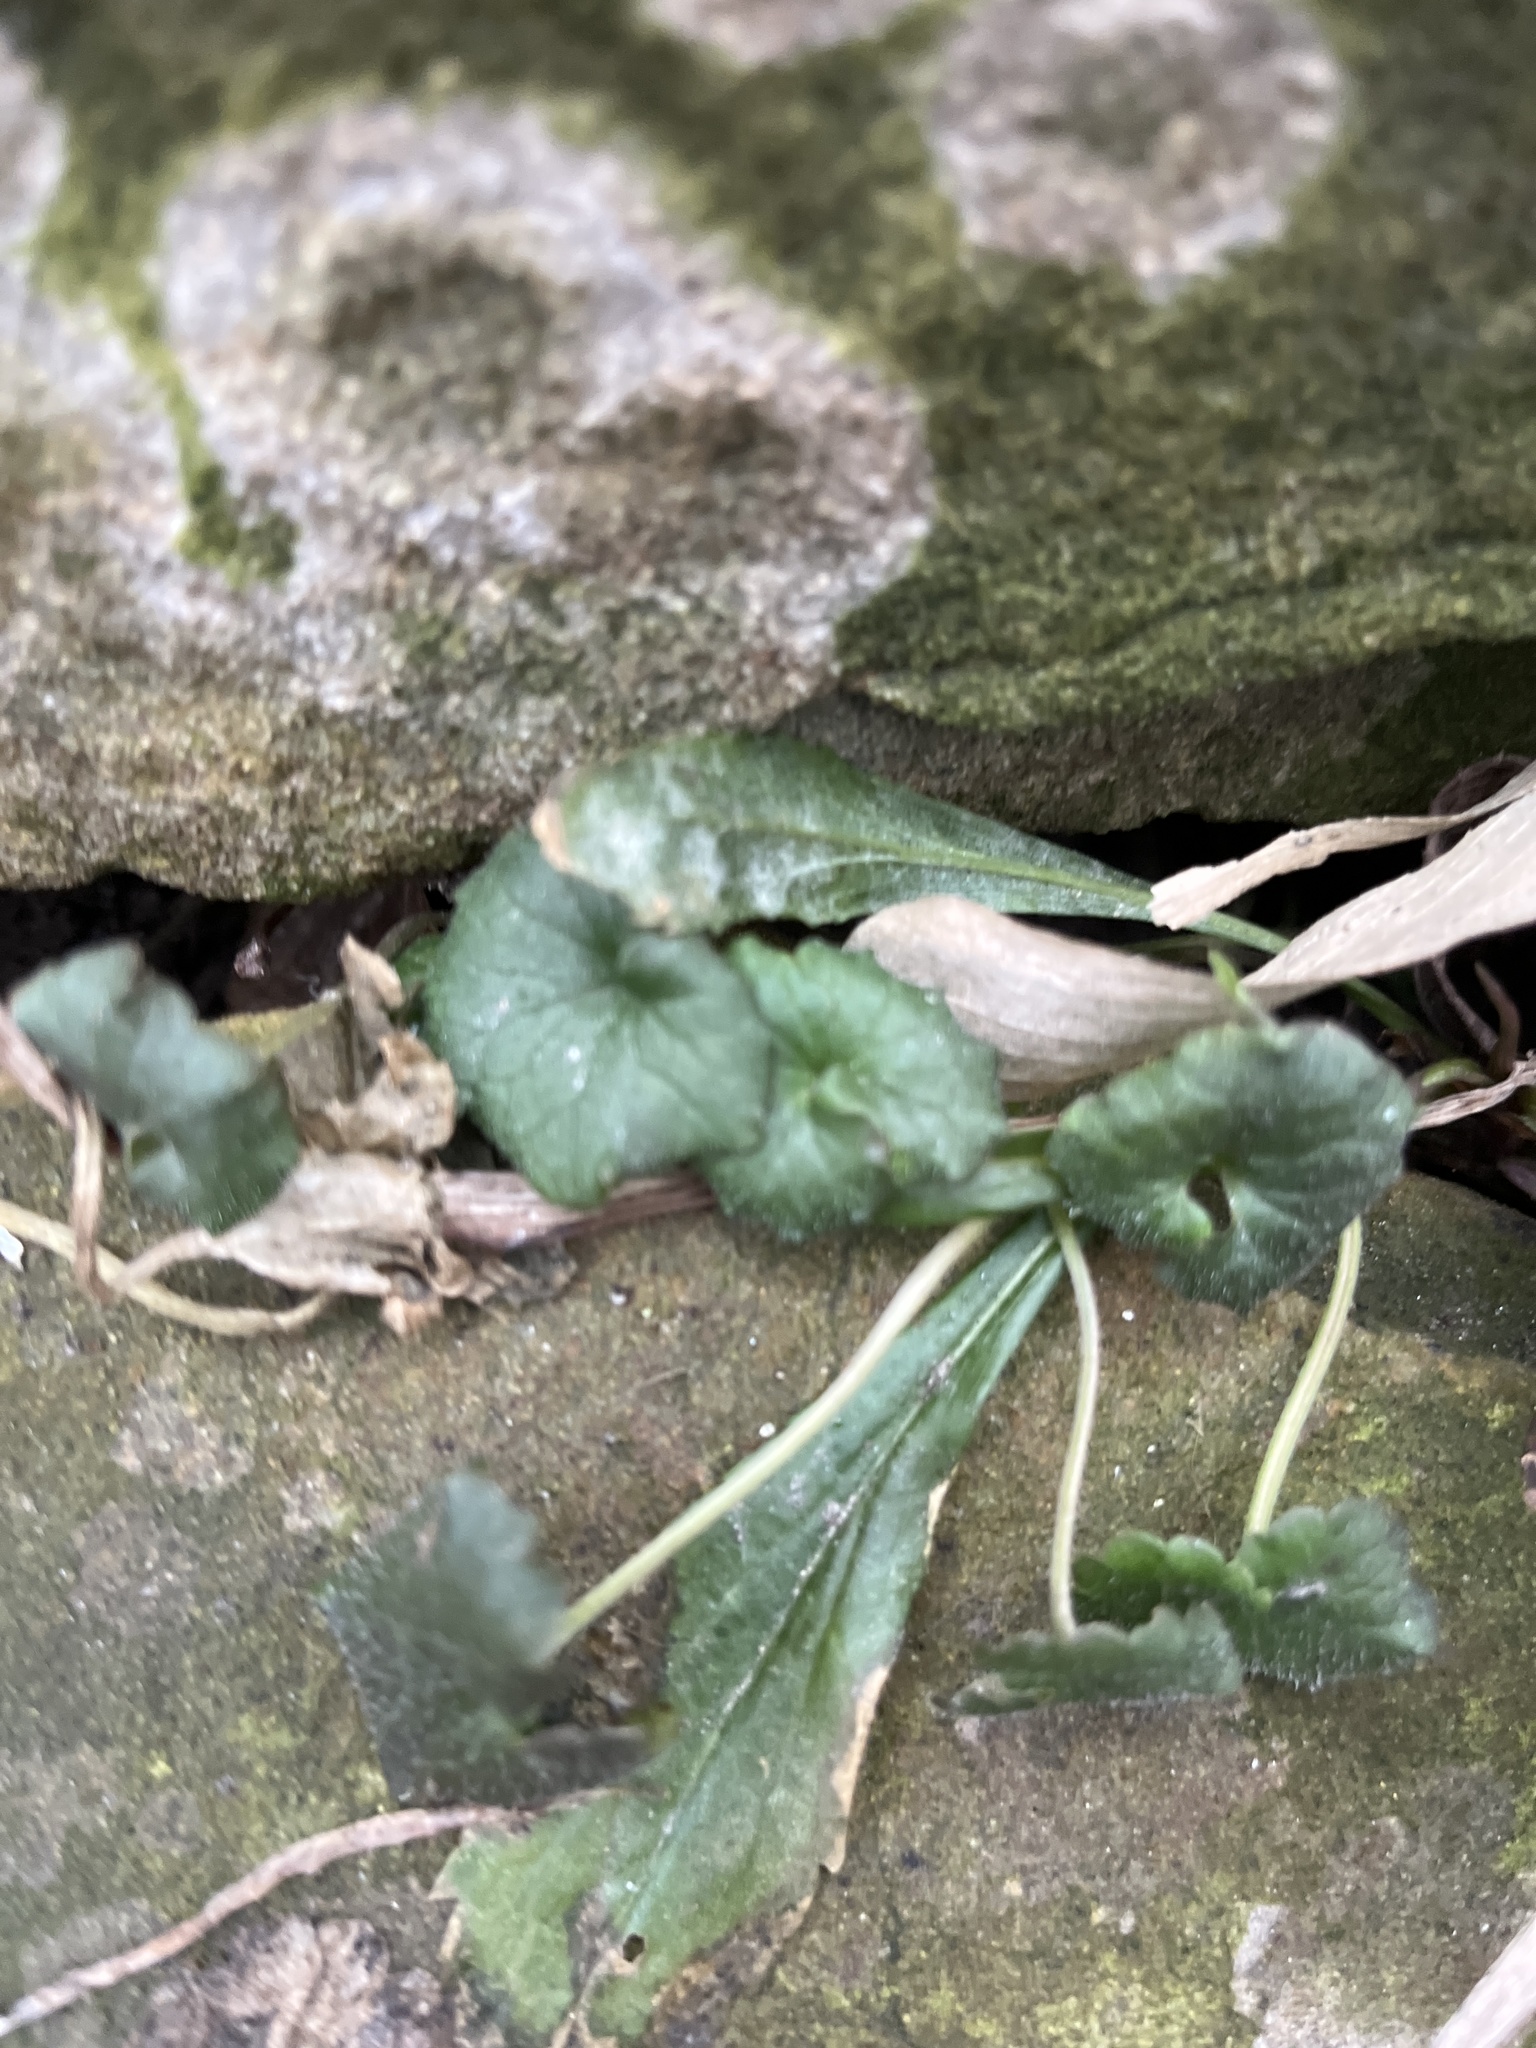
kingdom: Plantae
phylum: Tracheophyta
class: Magnoliopsida
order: Lamiales
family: Lamiaceae
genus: Glechoma
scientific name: Glechoma hederacea
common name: Ground ivy
